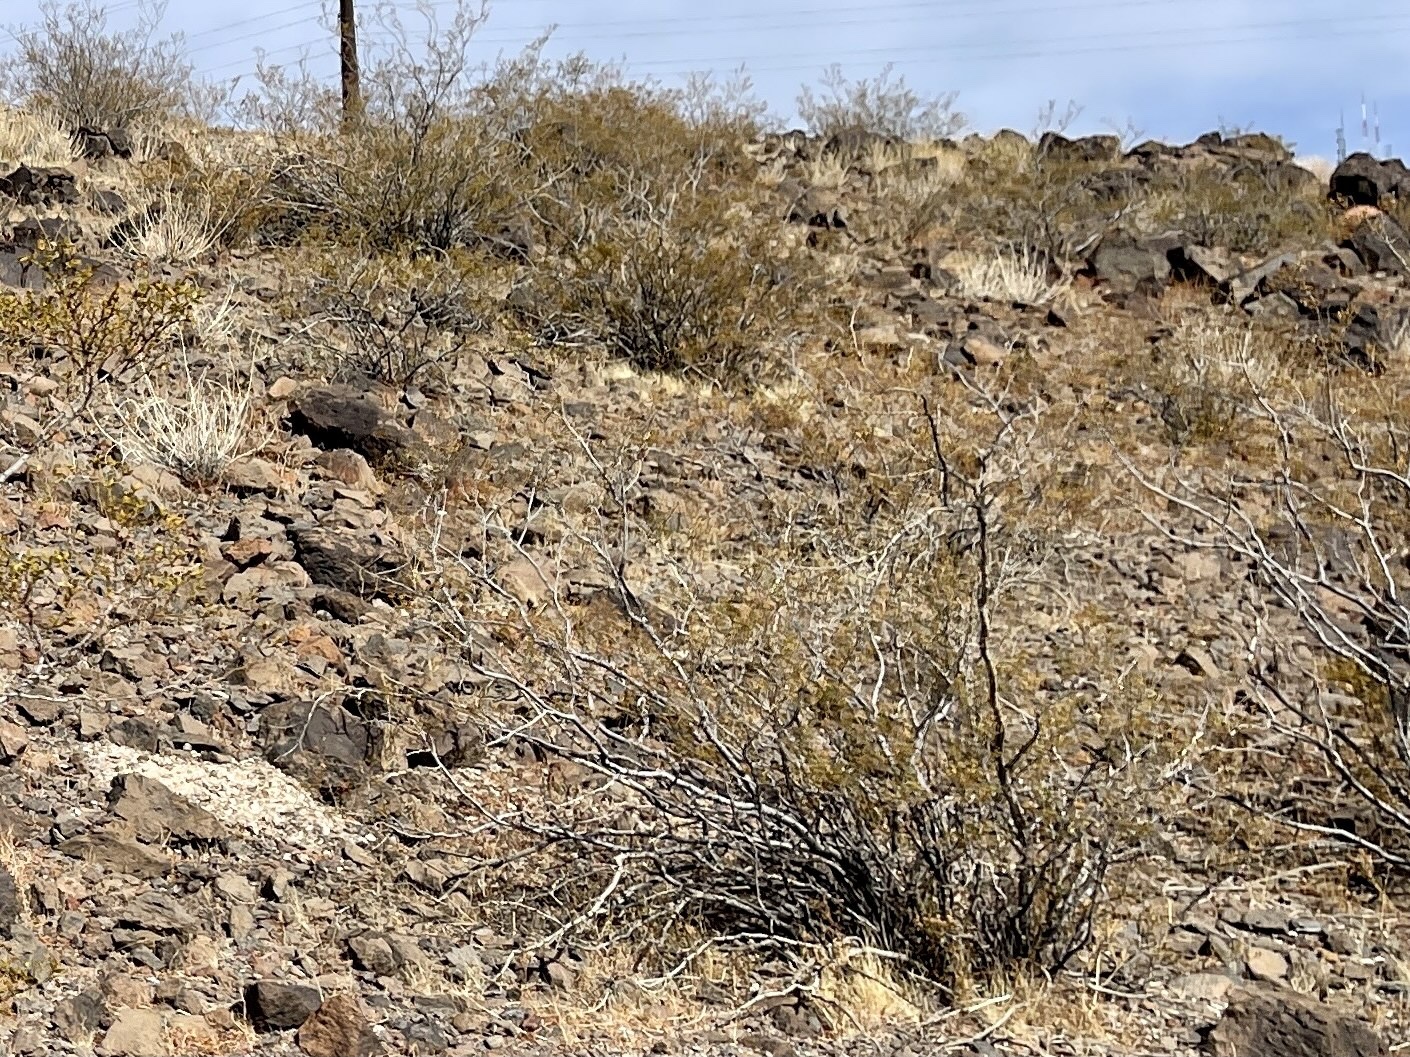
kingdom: Plantae
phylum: Tracheophyta
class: Magnoliopsida
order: Zygophyllales
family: Zygophyllaceae
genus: Larrea
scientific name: Larrea tridentata
